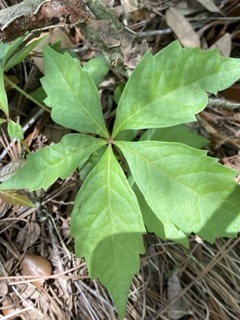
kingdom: Plantae
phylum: Tracheophyta
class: Magnoliopsida
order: Vitales
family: Vitaceae
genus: Parthenocissus
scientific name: Parthenocissus quinquefolia
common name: Virginia-creeper
